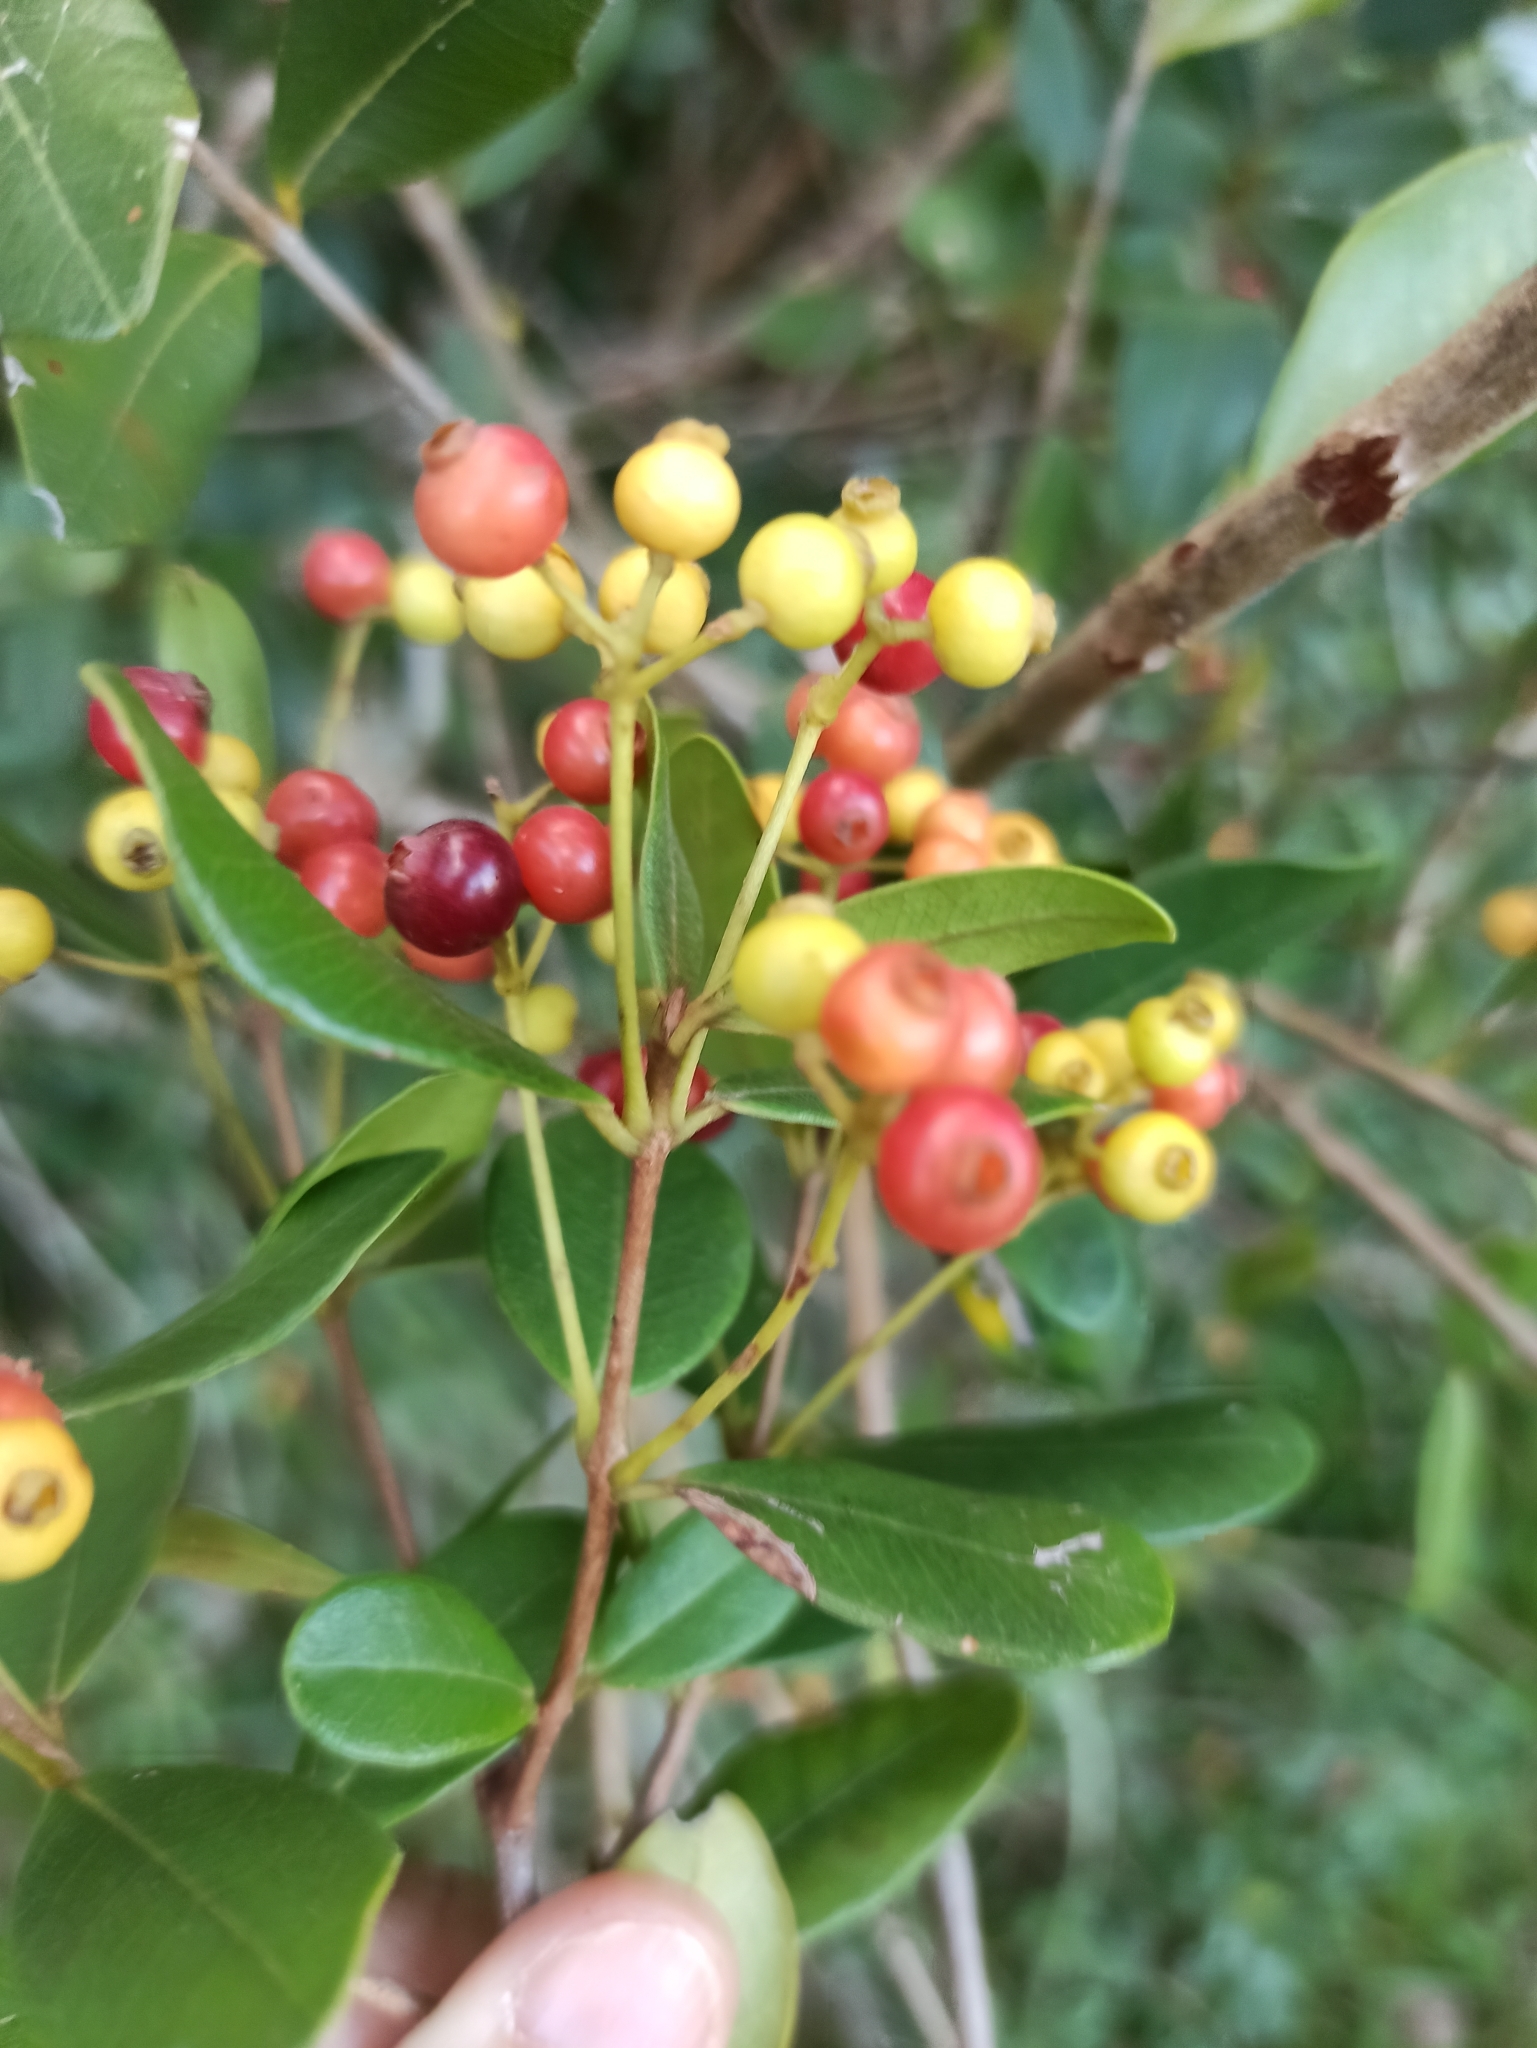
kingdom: Plantae
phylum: Tracheophyta
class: Magnoliopsida
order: Myrtales
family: Myrtaceae
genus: Myrcia
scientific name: Myrcia palustris
